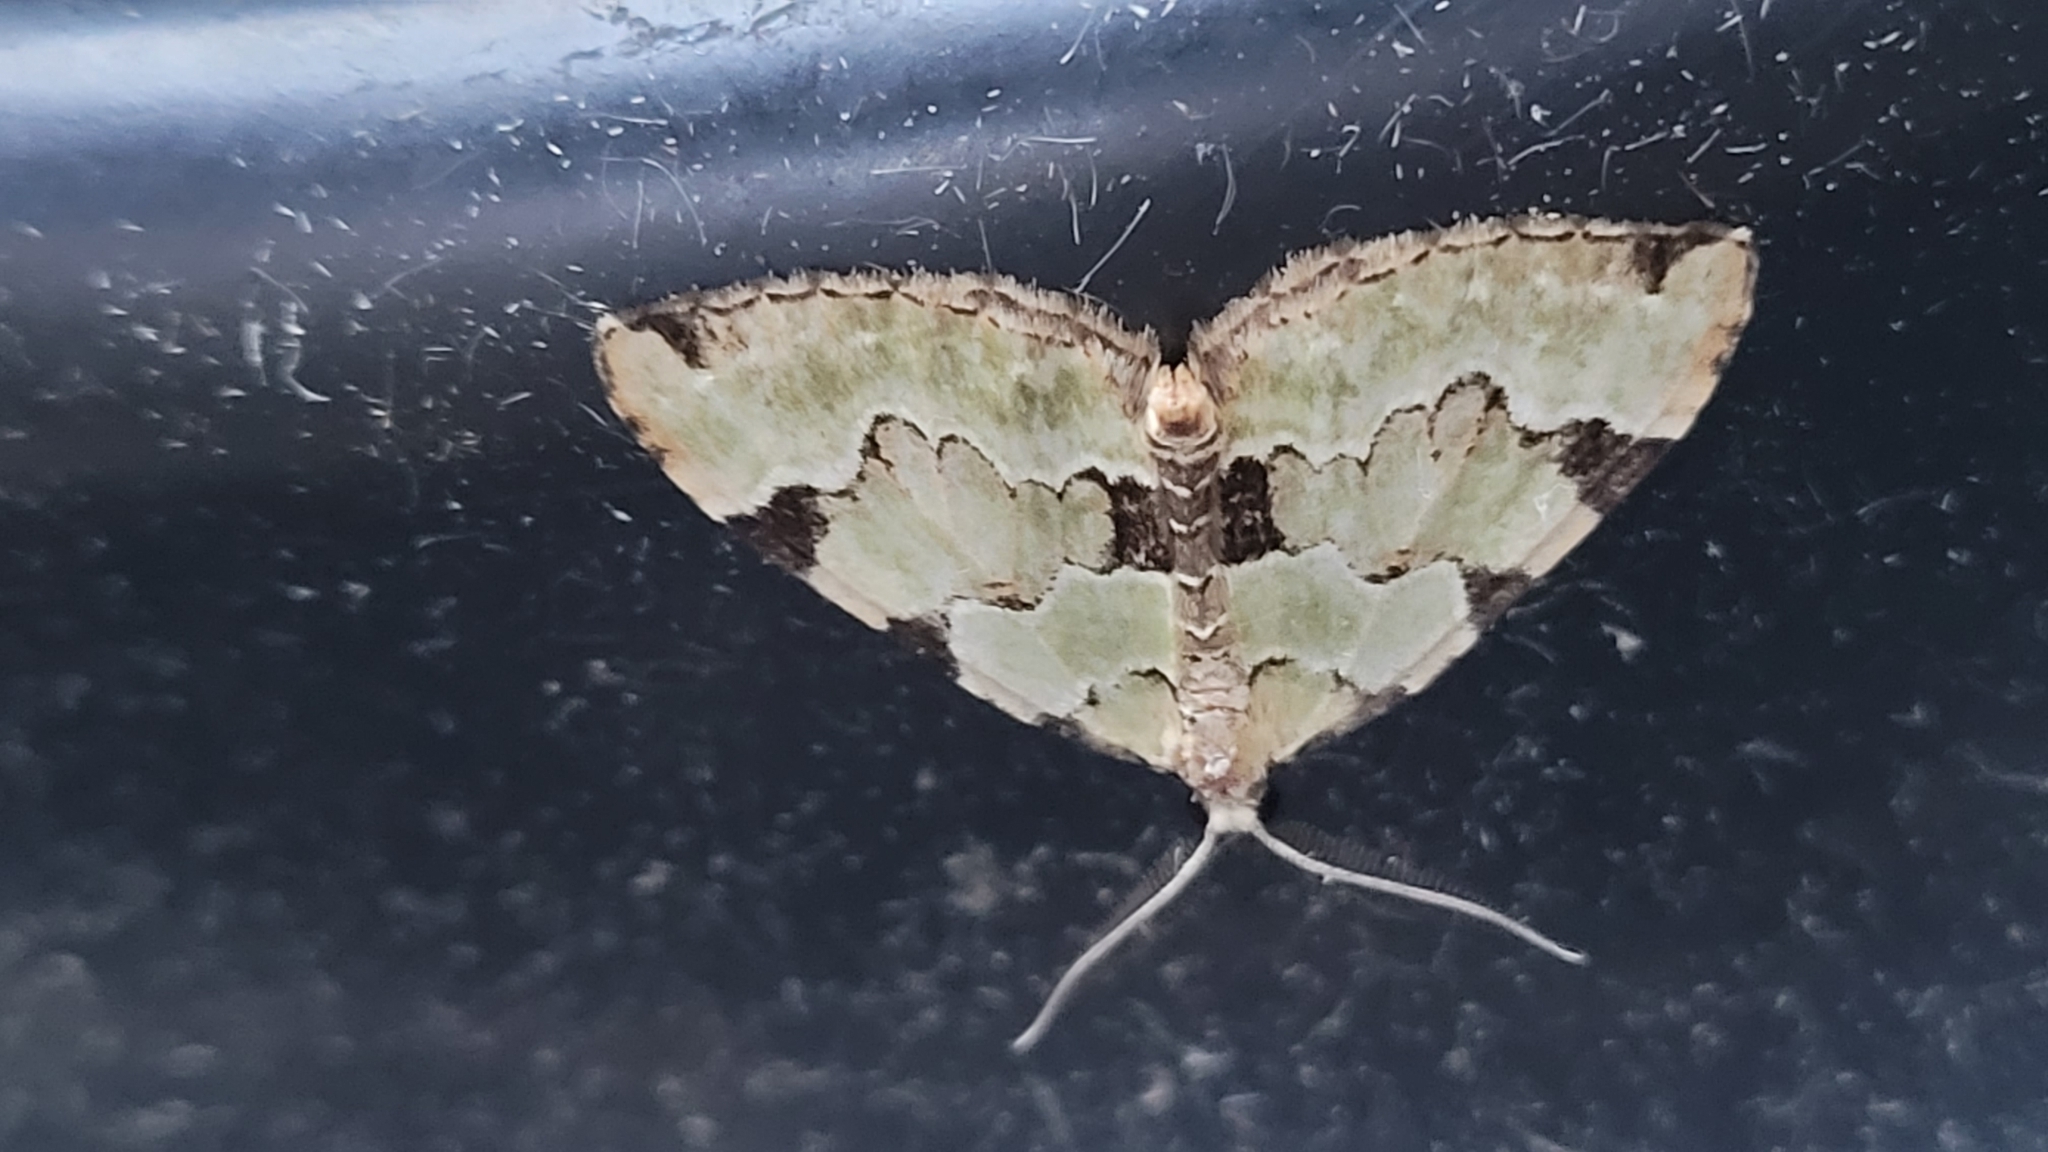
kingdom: Animalia
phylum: Arthropoda
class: Insecta
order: Lepidoptera
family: Geometridae
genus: Colostygia
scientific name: Colostygia pectinataria
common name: Green carpet
